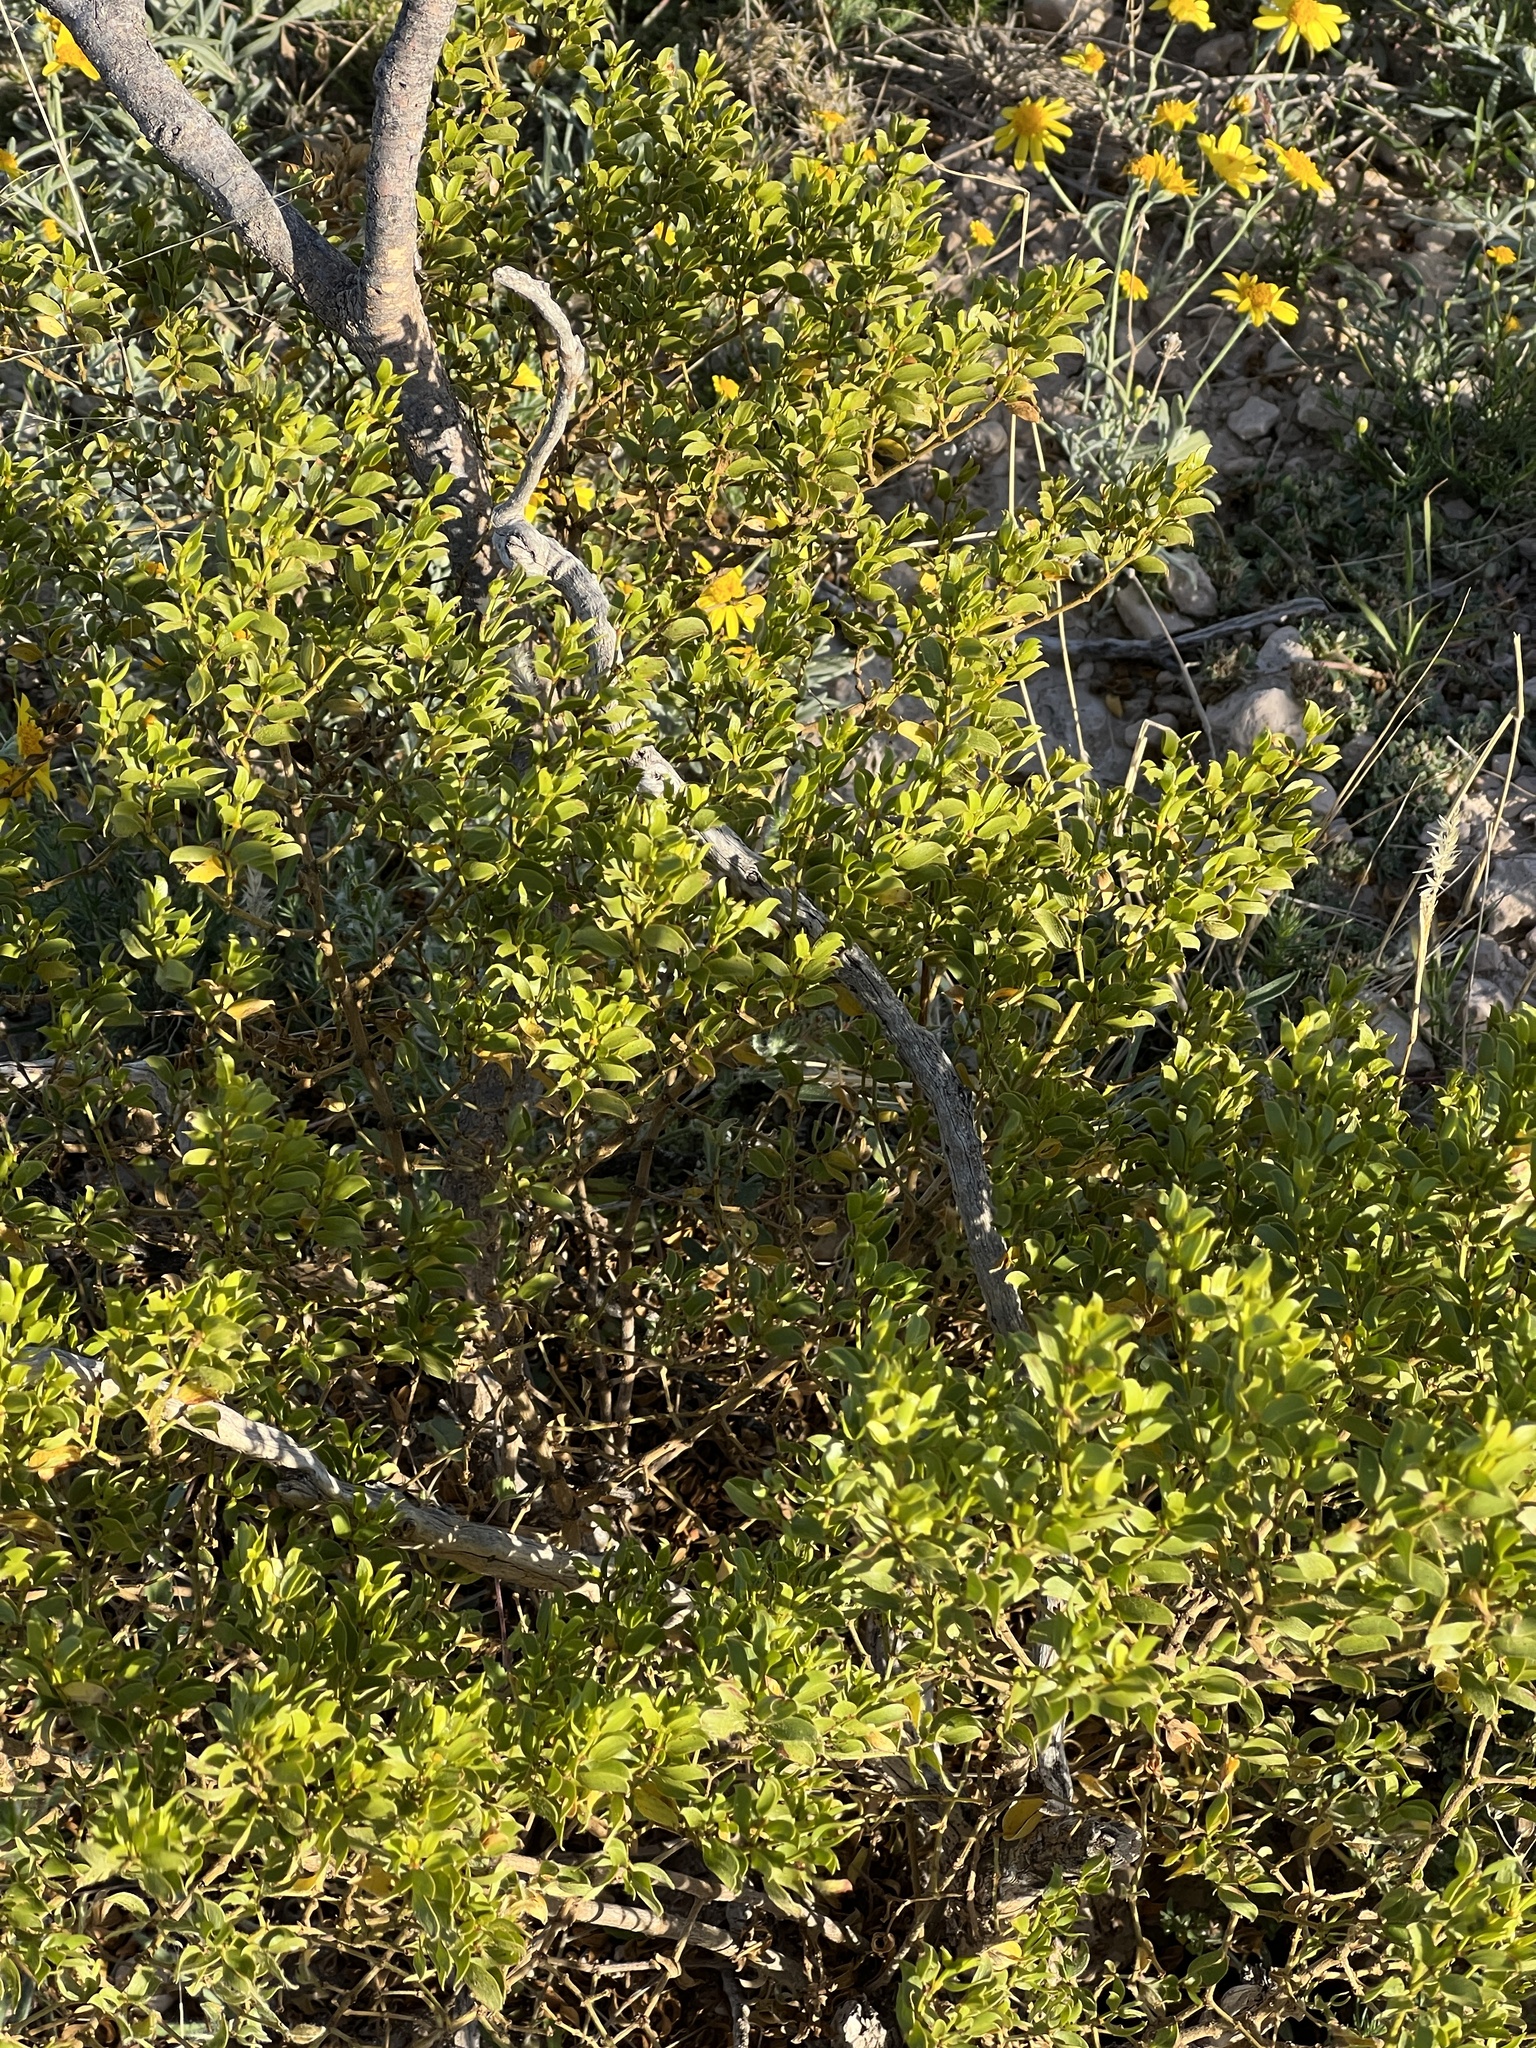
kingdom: Plantae
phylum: Tracheophyta
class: Magnoliopsida
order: Zygophyllales
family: Zygophyllaceae
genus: Larrea
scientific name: Larrea tridentata
